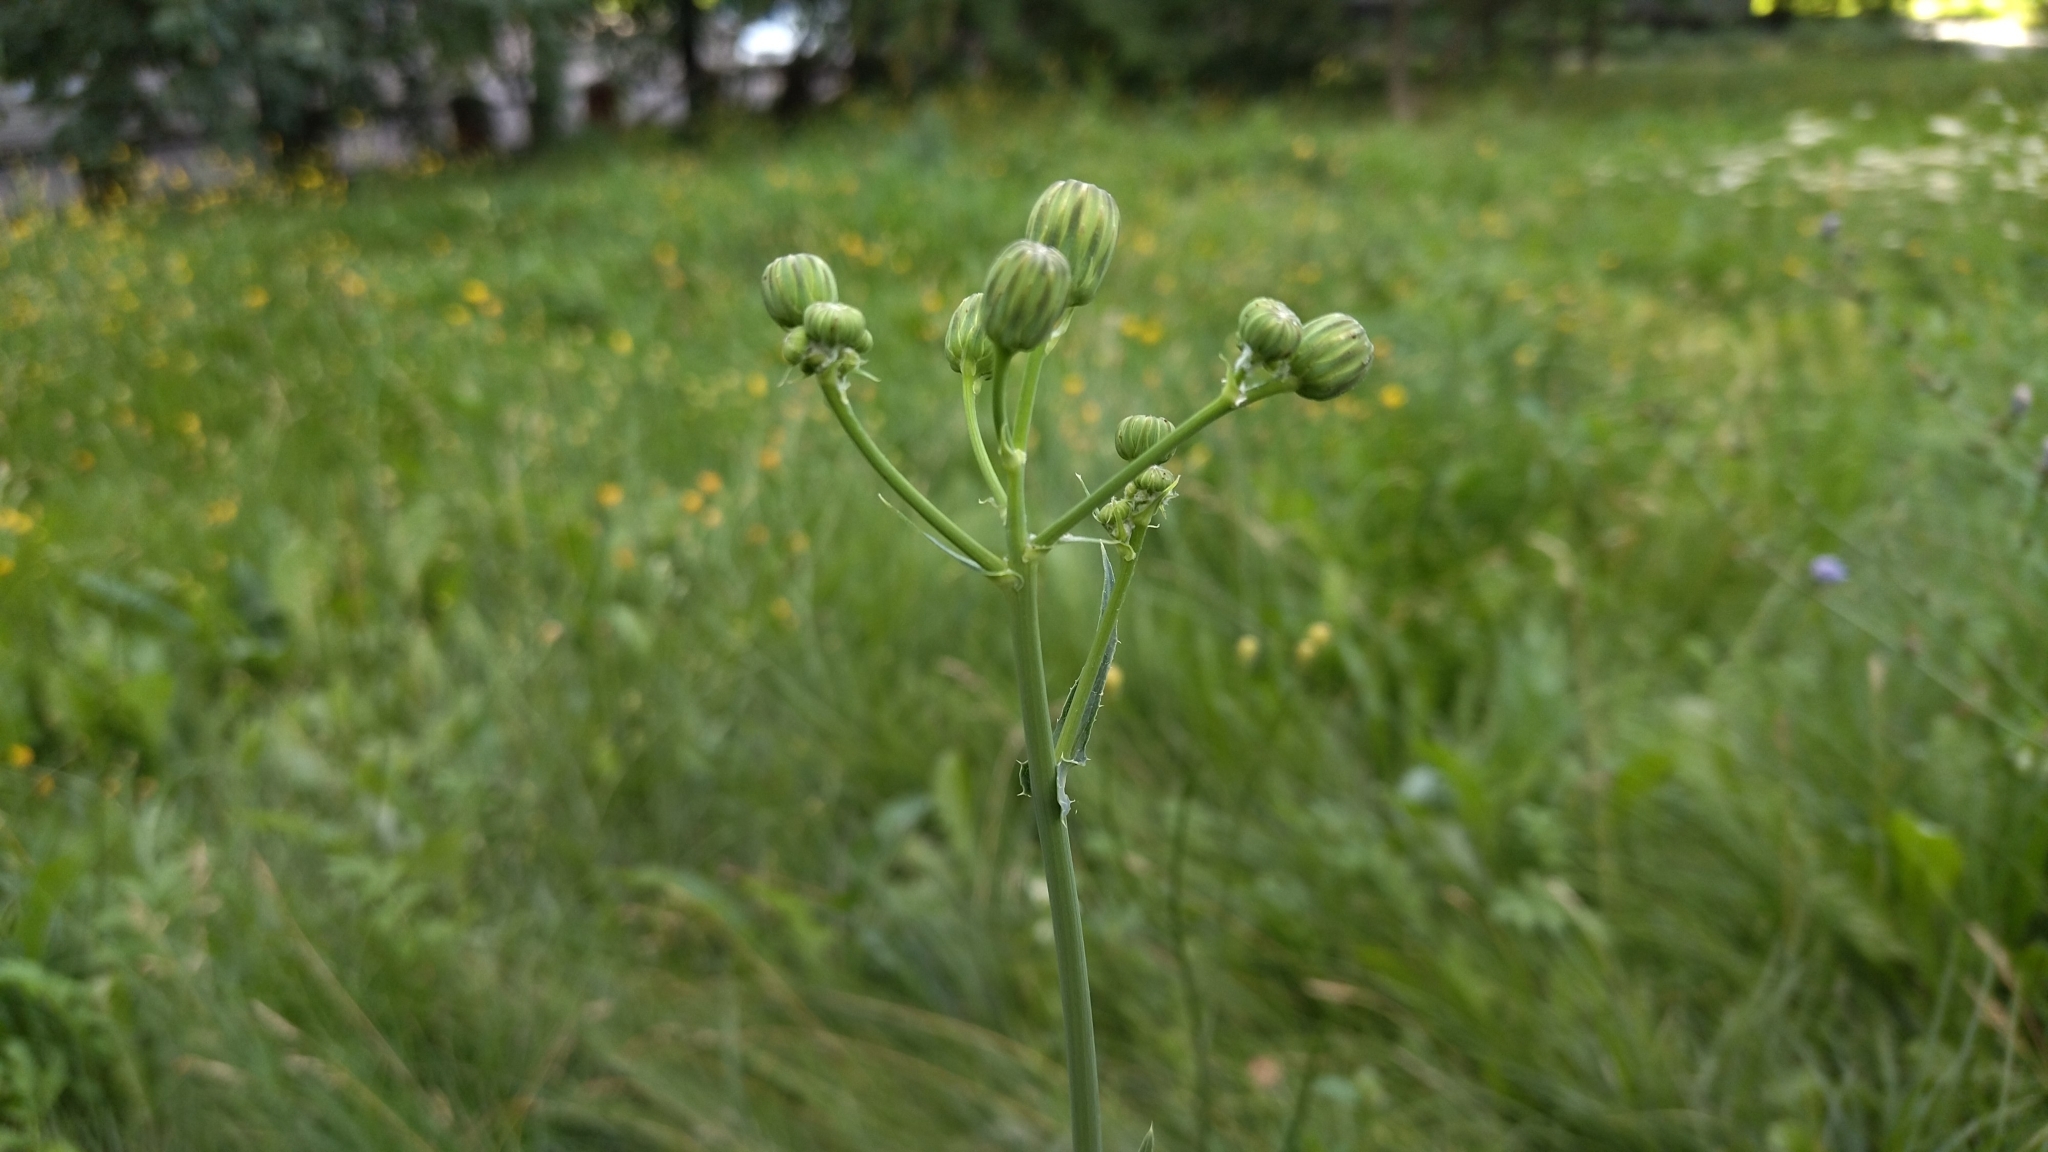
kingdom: Plantae
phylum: Tracheophyta
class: Magnoliopsida
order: Asterales
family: Asteraceae
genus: Sonchus
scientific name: Sonchus arvensis
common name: Perennial sow-thistle
